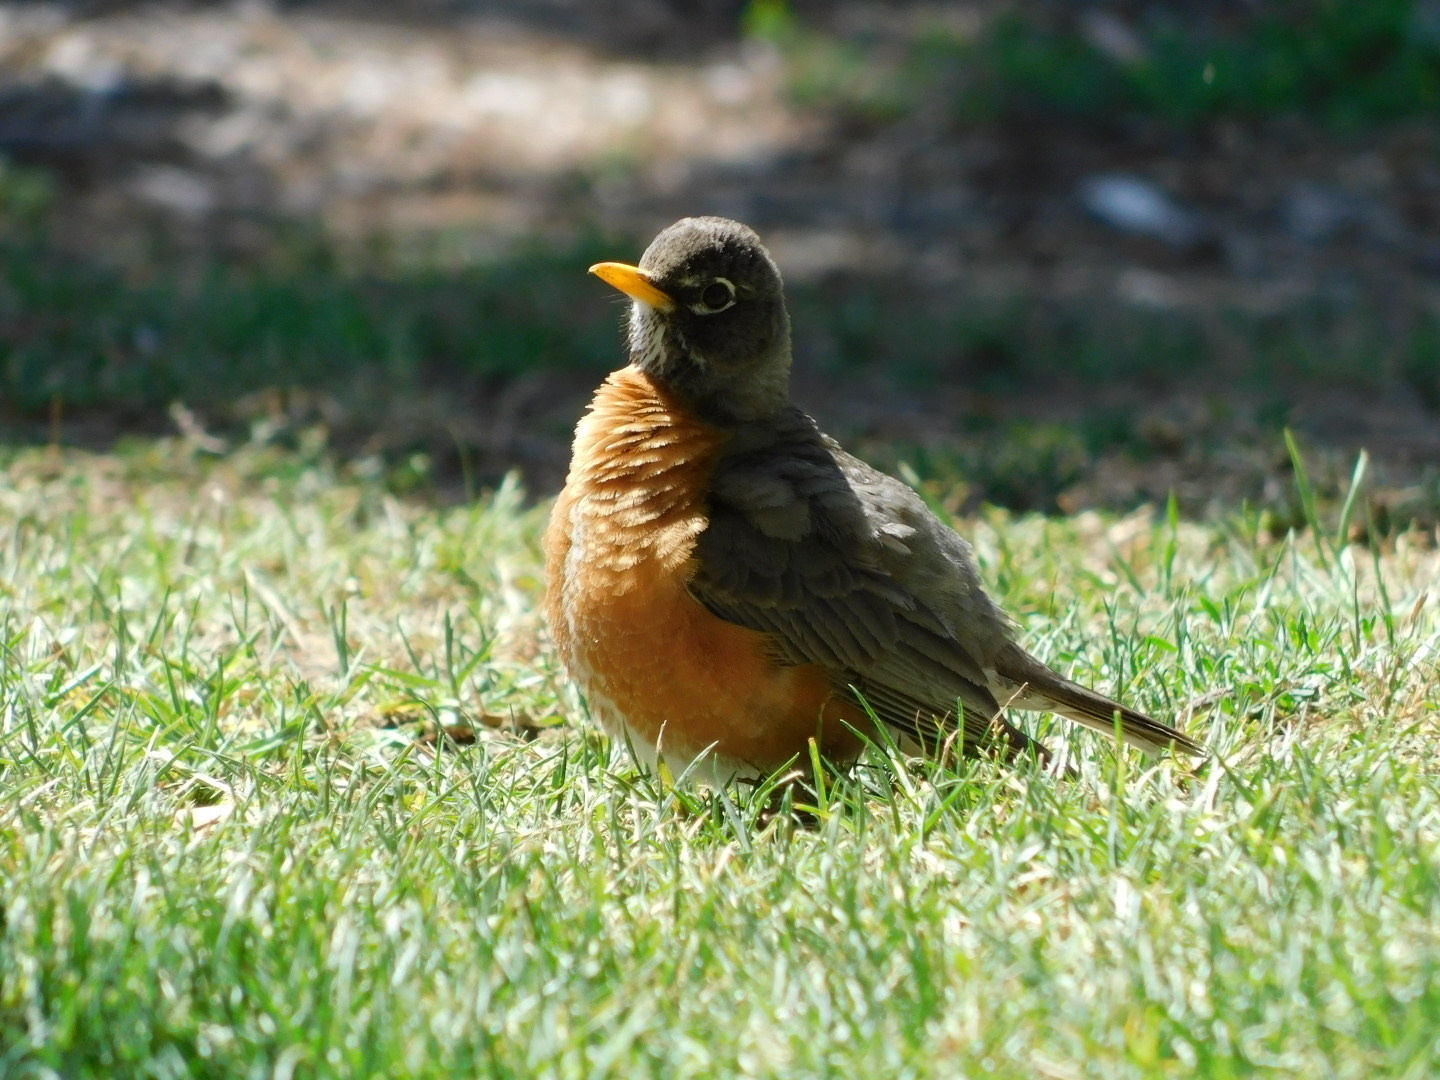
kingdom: Animalia
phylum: Chordata
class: Aves
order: Passeriformes
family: Turdidae
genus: Turdus
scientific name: Turdus migratorius
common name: American robin
